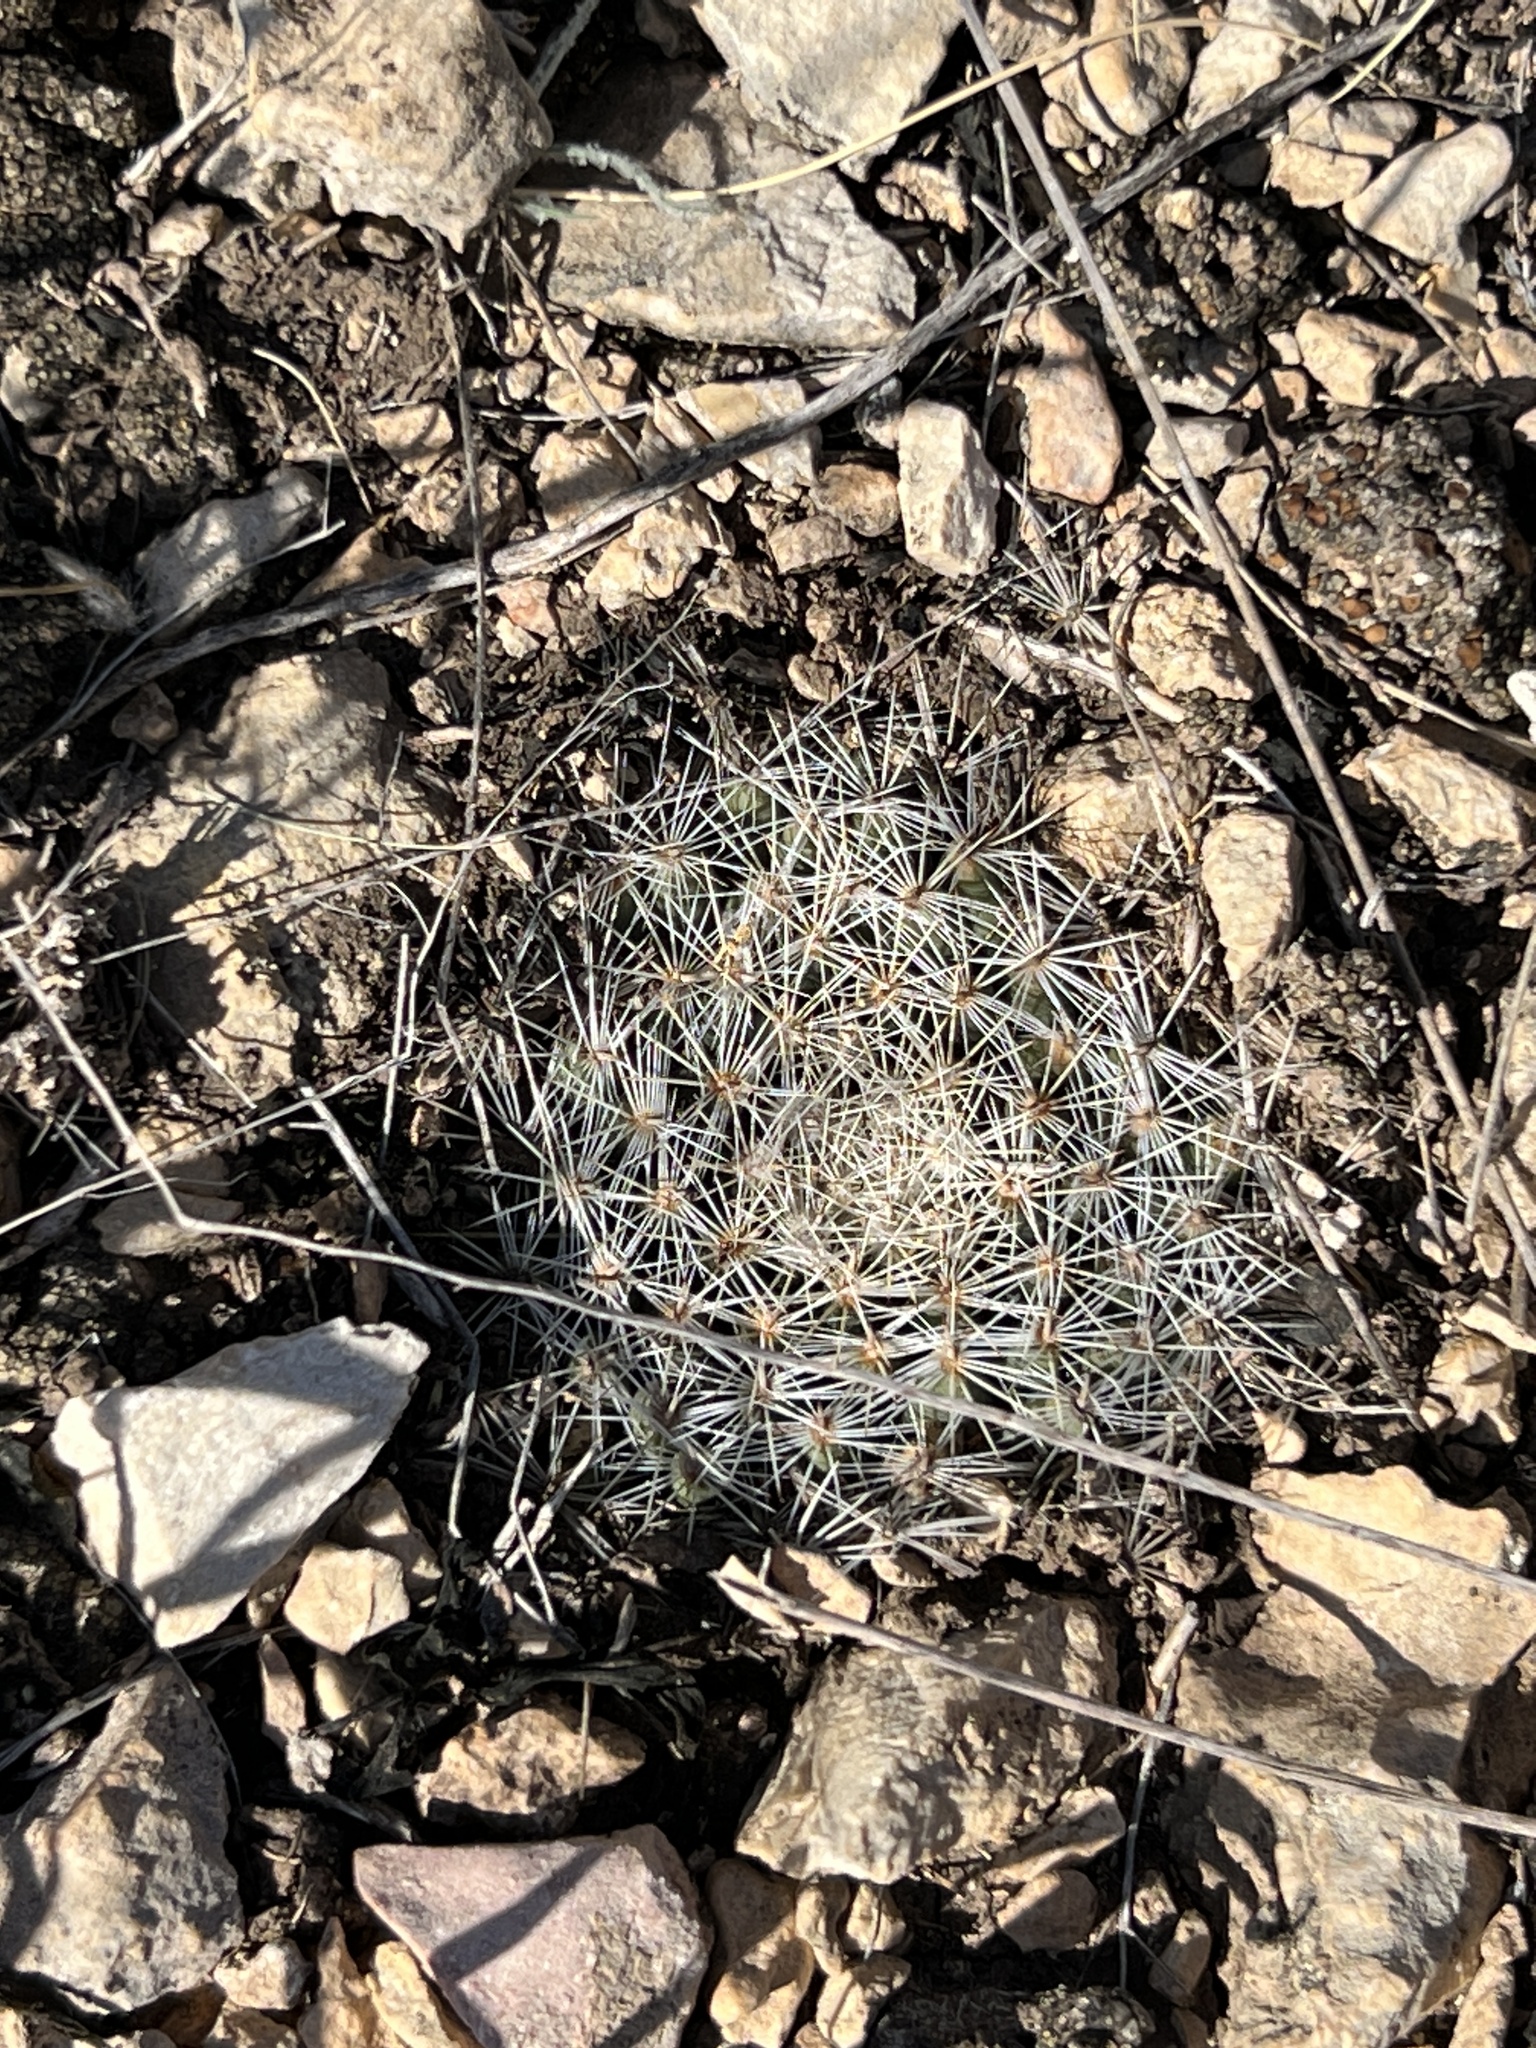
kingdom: Plantae
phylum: Tracheophyta
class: Magnoliopsida
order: Caryophyllales
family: Cactaceae
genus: Mammillaria
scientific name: Mammillaria heyderi
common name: Little nipple cactus
